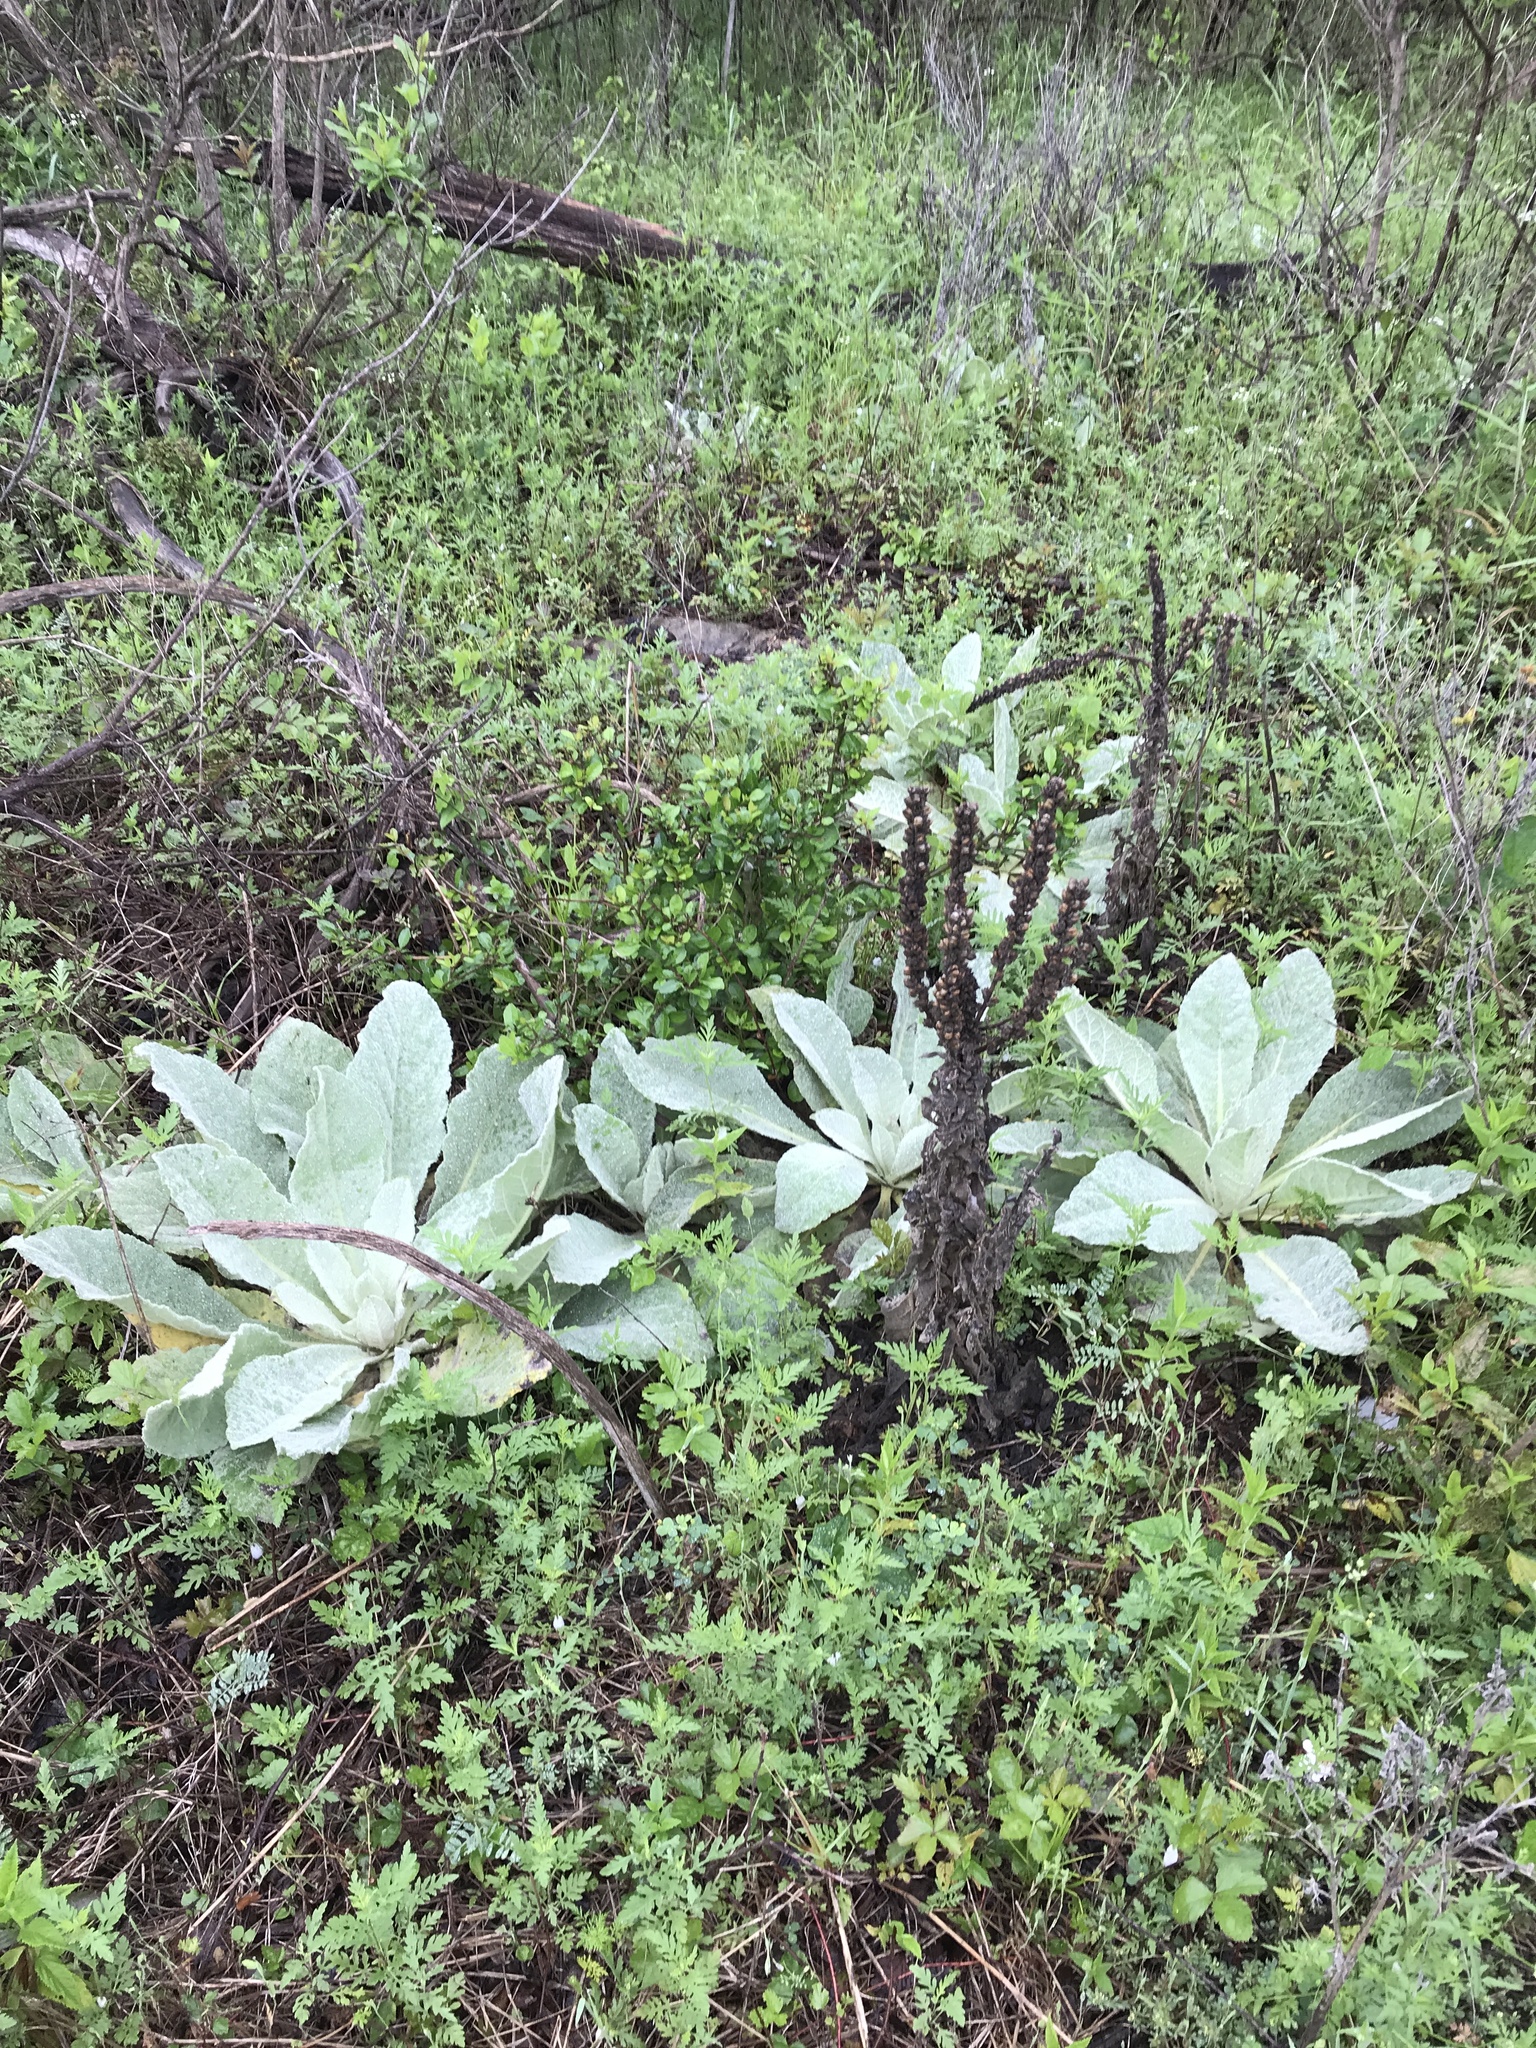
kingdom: Plantae
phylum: Tracheophyta
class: Magnoliopsida
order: Lamiales
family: Scrophulariaceae
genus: Verbascum
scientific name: Verbascum thapsus
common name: Common mullein
